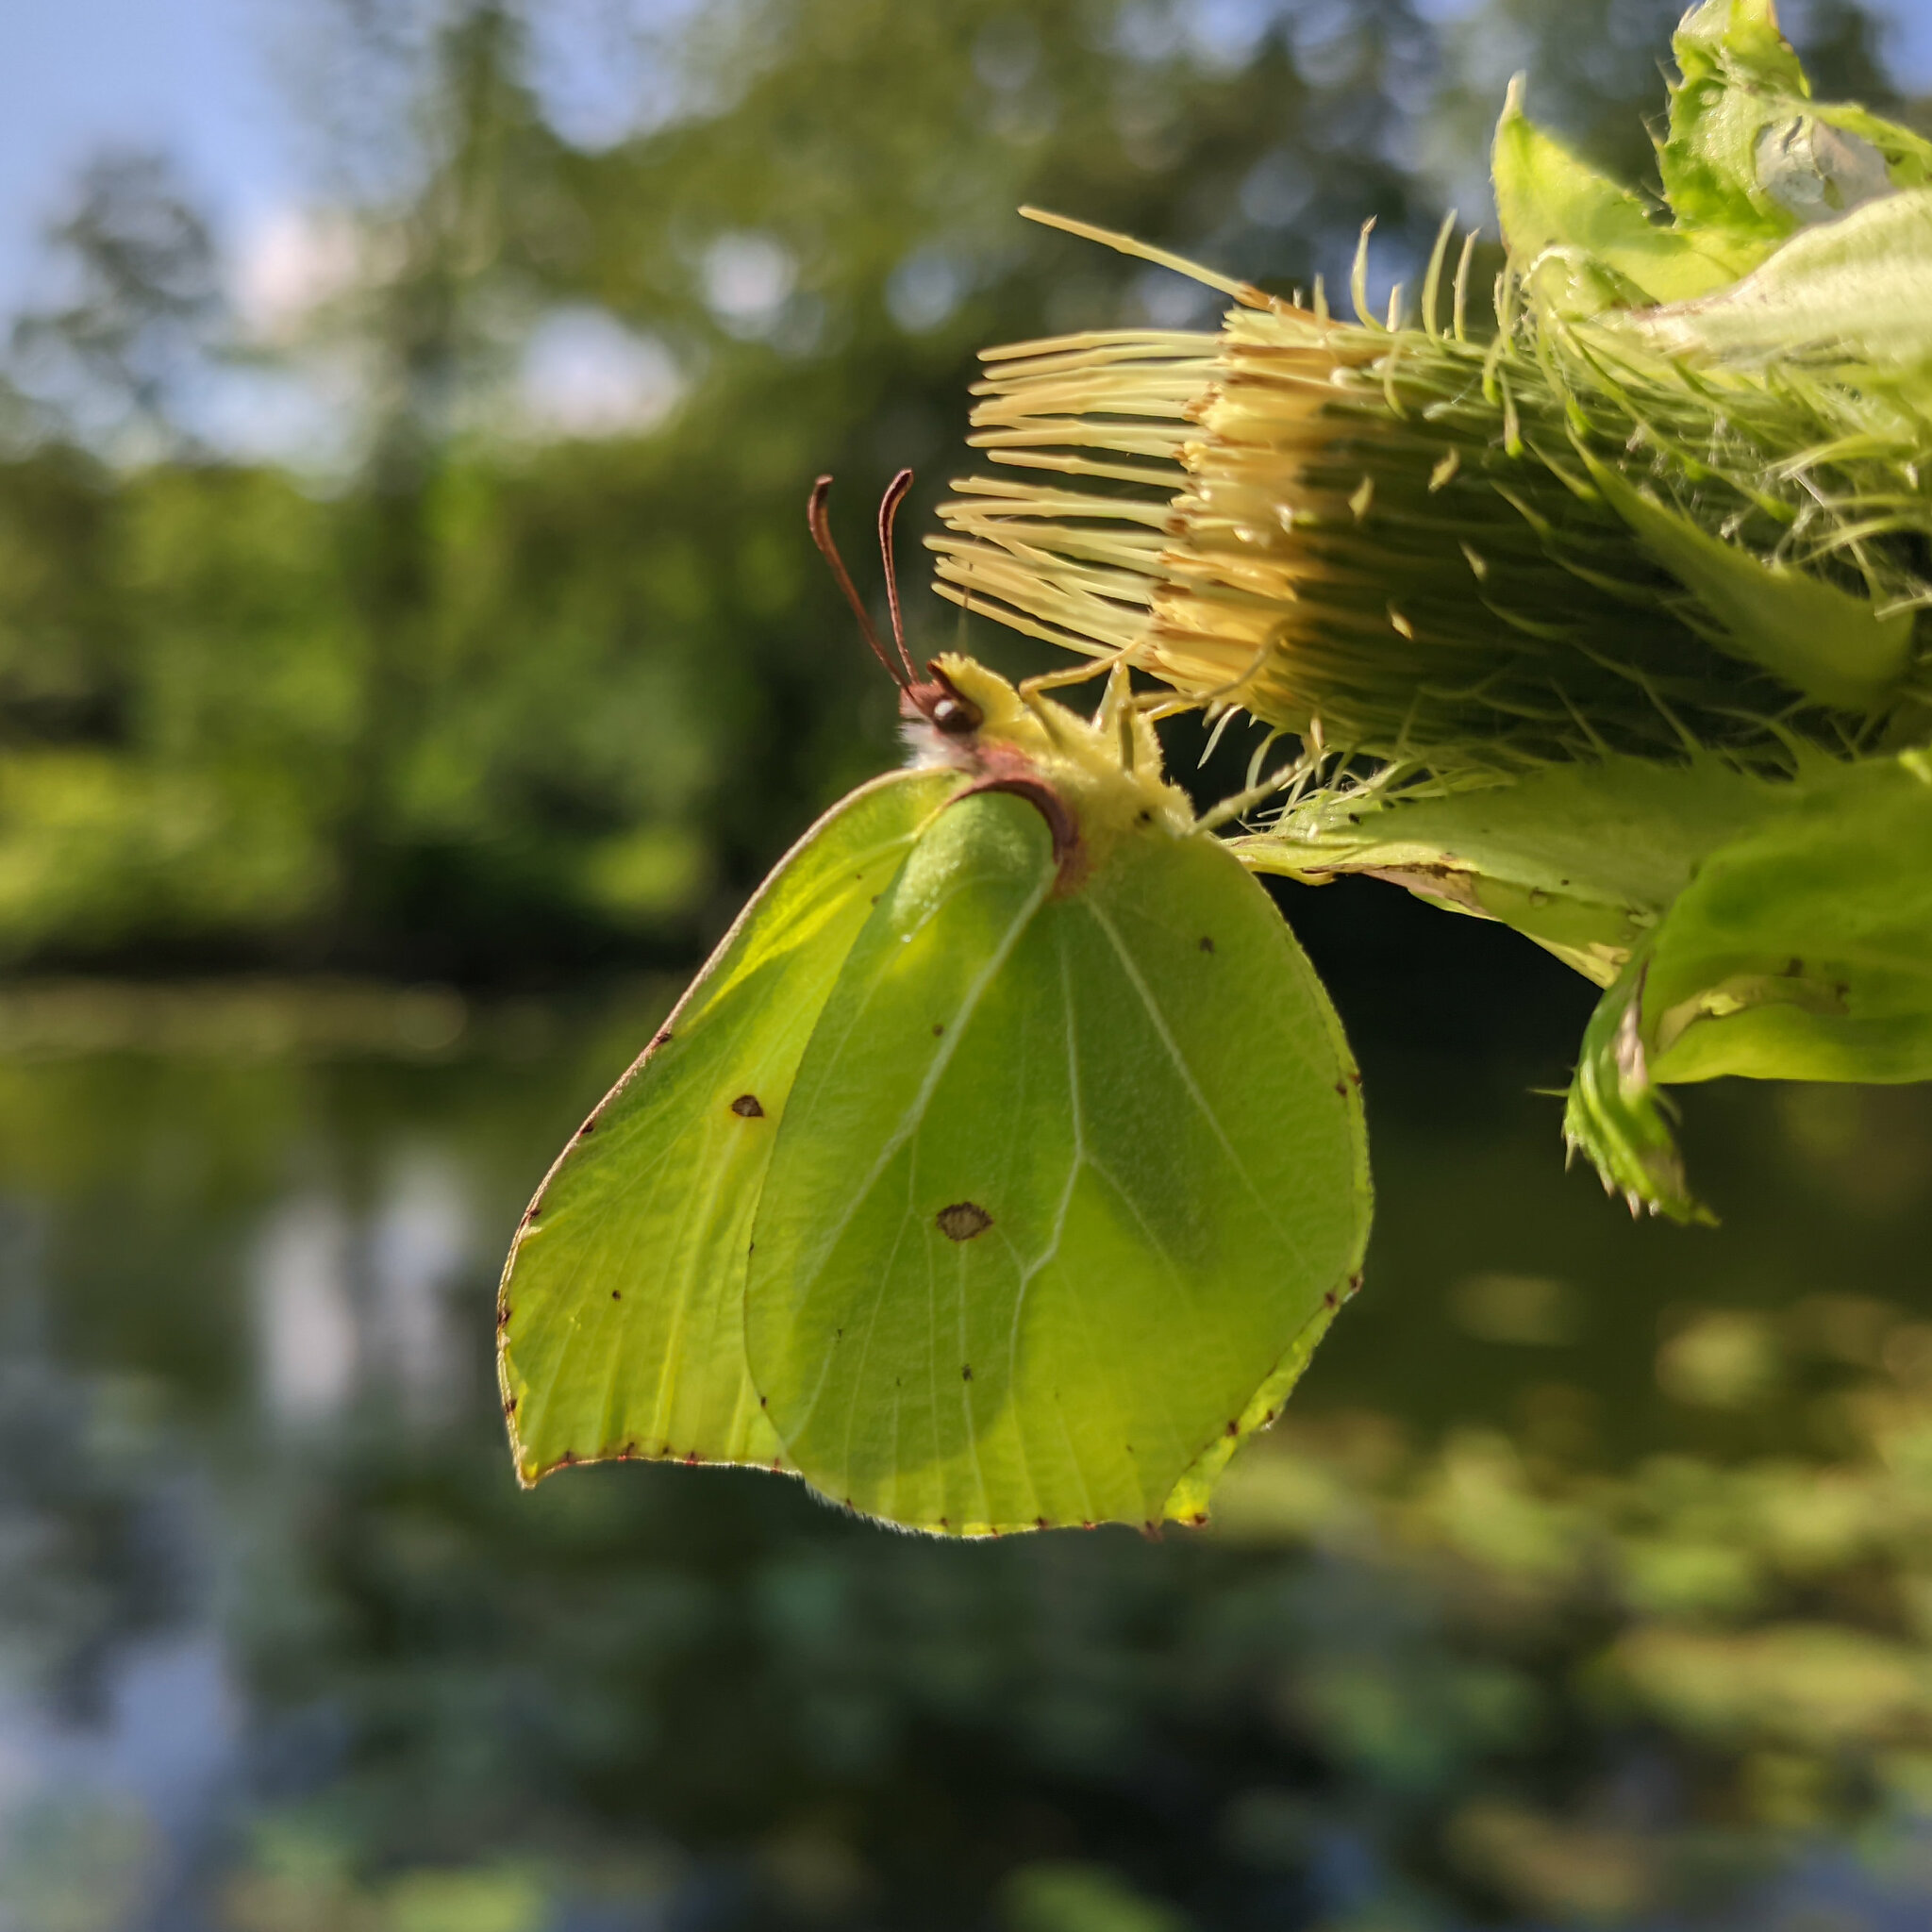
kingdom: Animalia
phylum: Arthropoda
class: Insecta
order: Lepidoptera
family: Pieridae
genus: Gonepteryx
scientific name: Gonepteryx rhamni
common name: Brimstone
